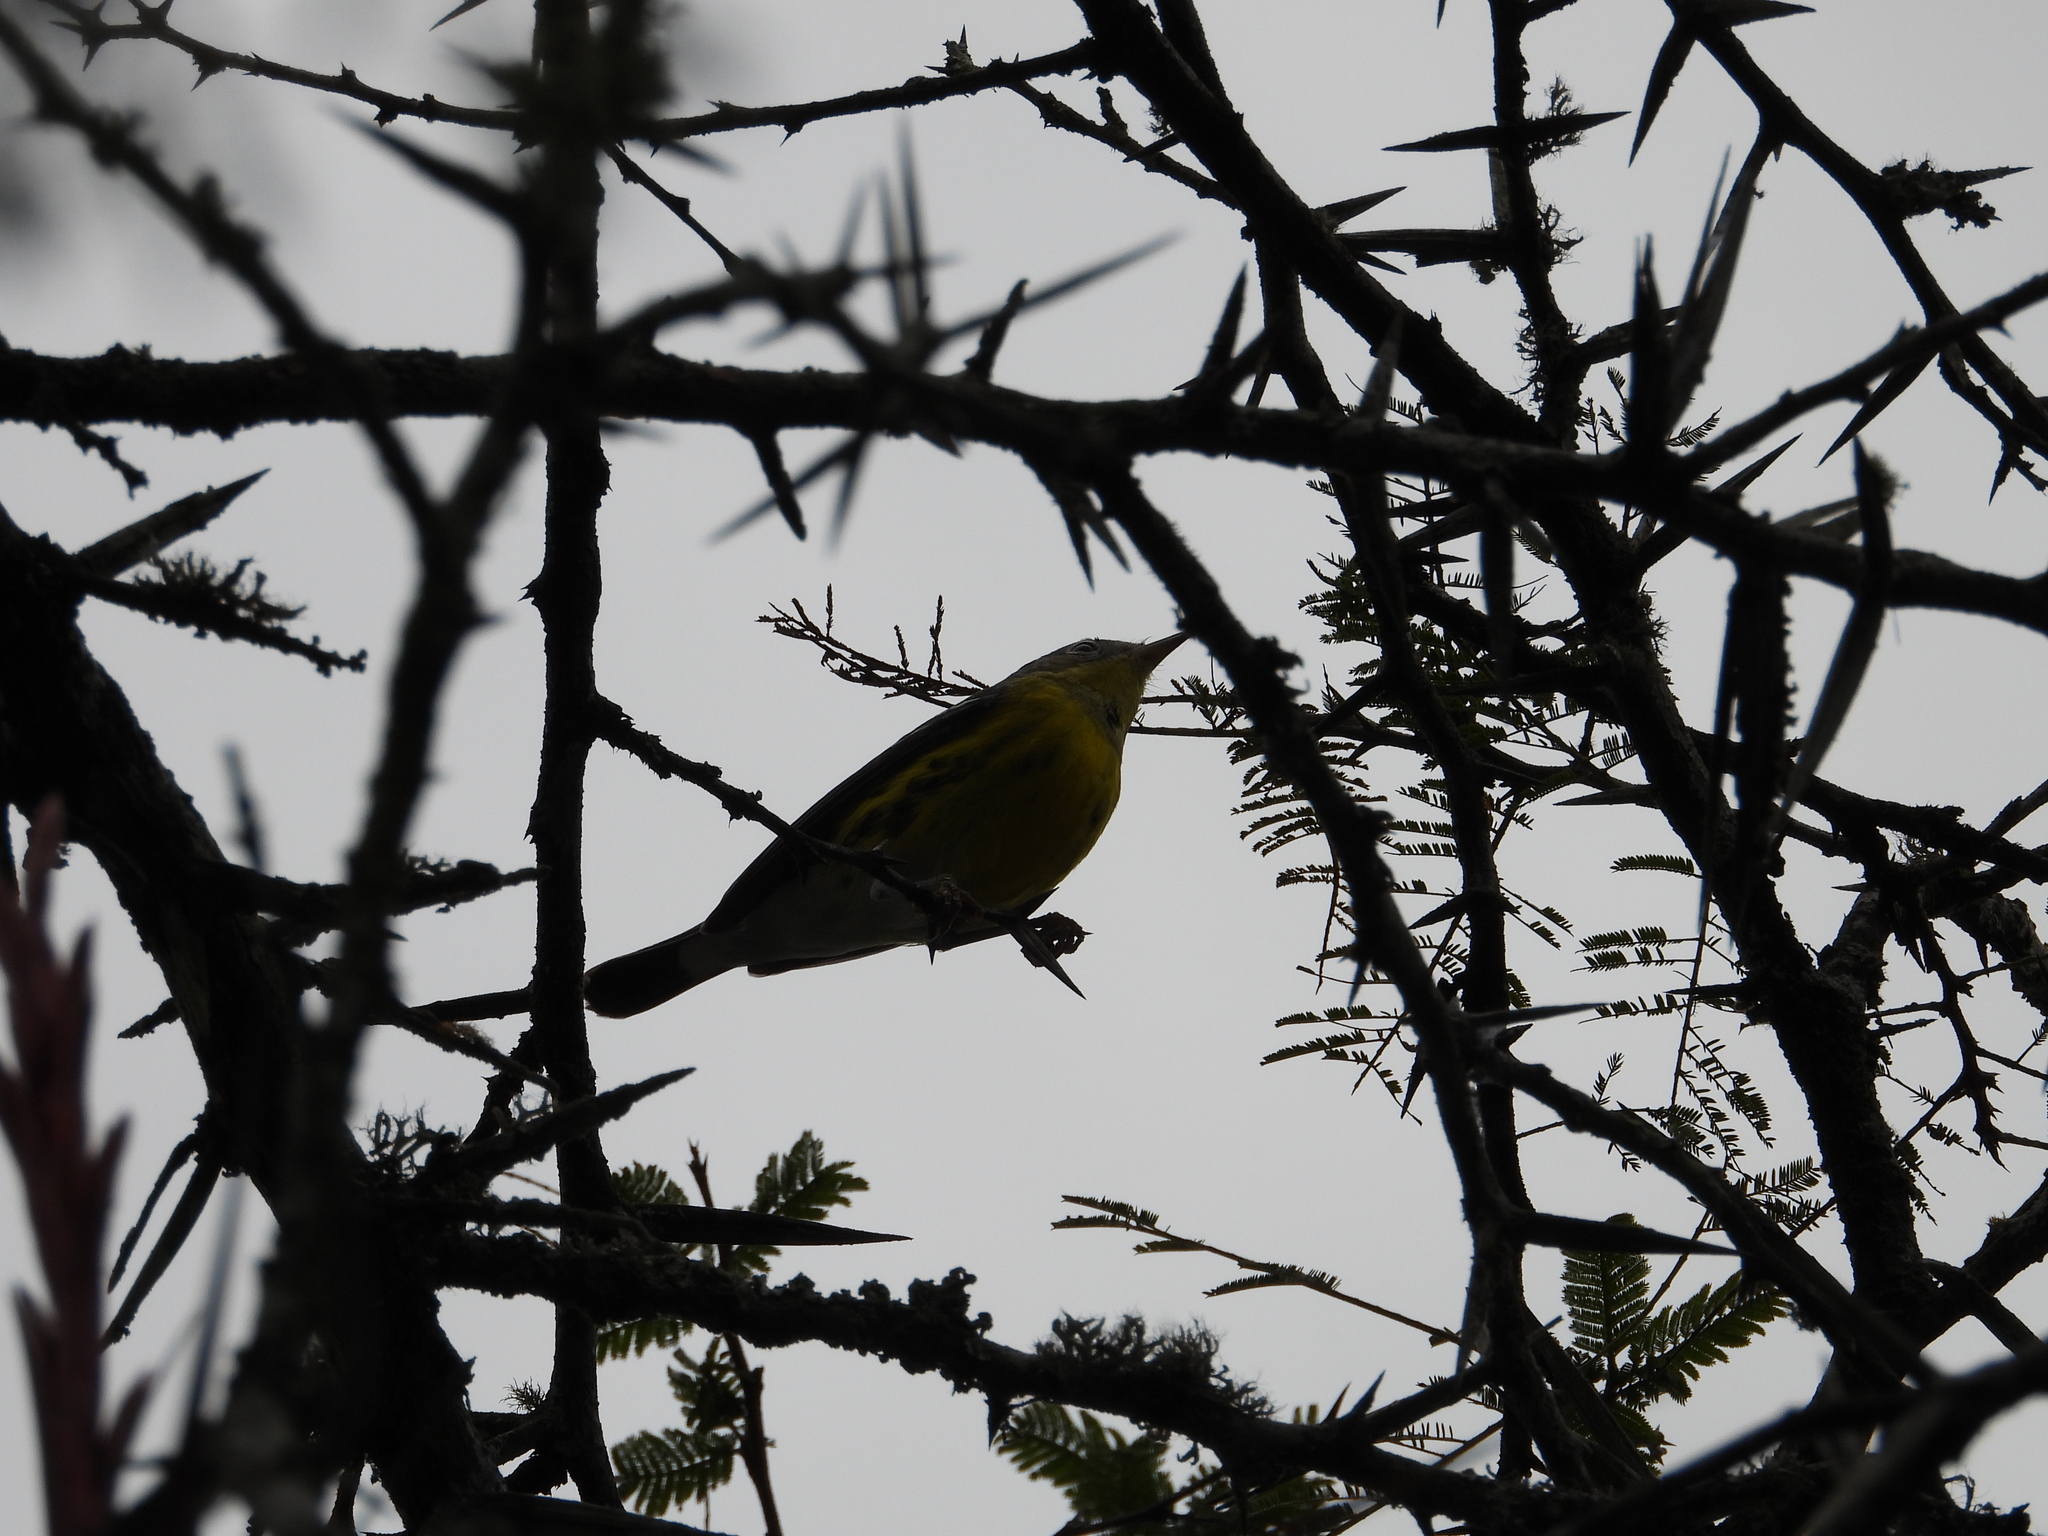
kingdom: Animalia
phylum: Chordata
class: Aves
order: Passeriformes
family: Parulidae
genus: Setophaga
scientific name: Setophaga magnolia
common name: Magnolia warbler
